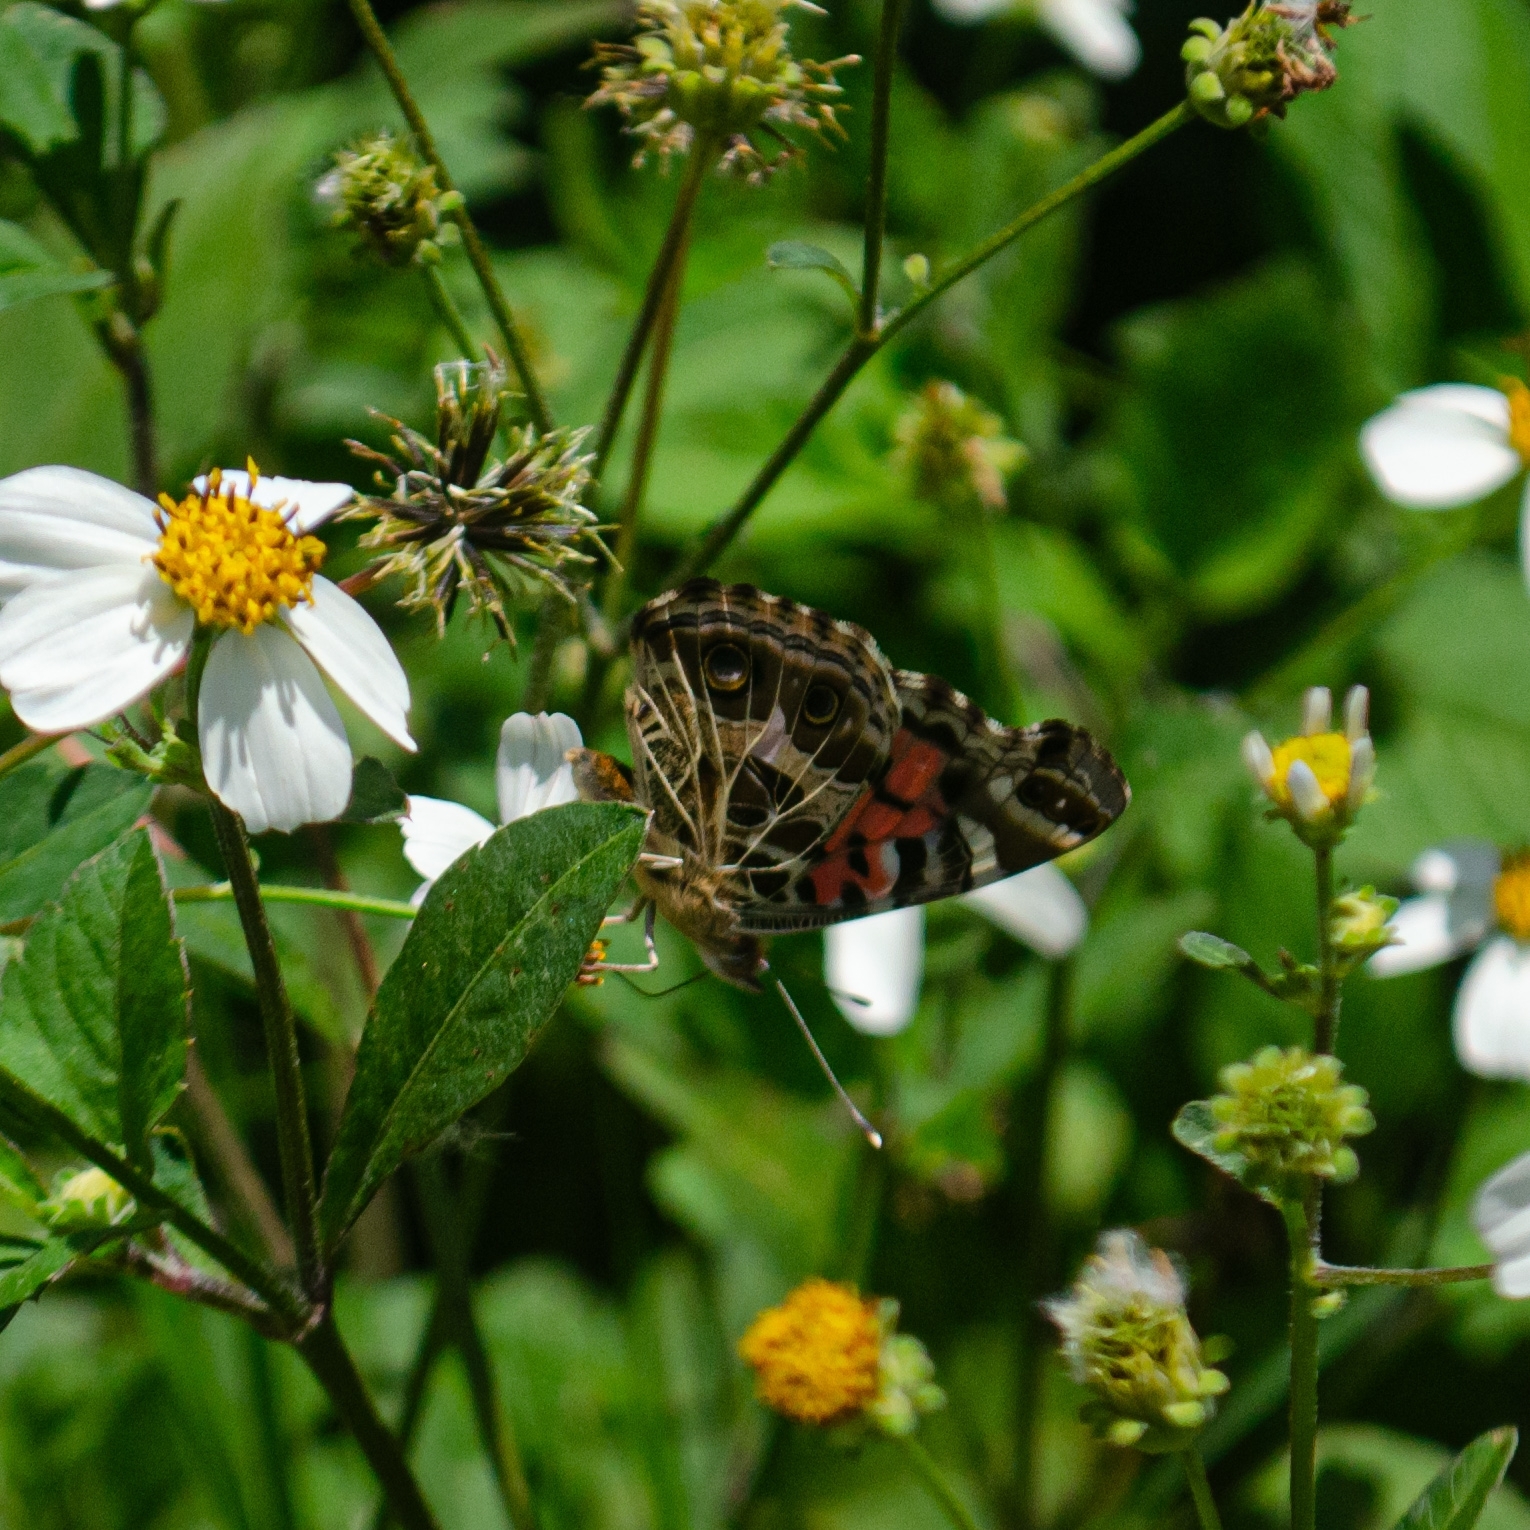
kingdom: Animalia
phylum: Arthropoda
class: Insecta
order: Lepidoptera
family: Nymphalidae
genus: Vanessa
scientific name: Vanessa braziliensis
